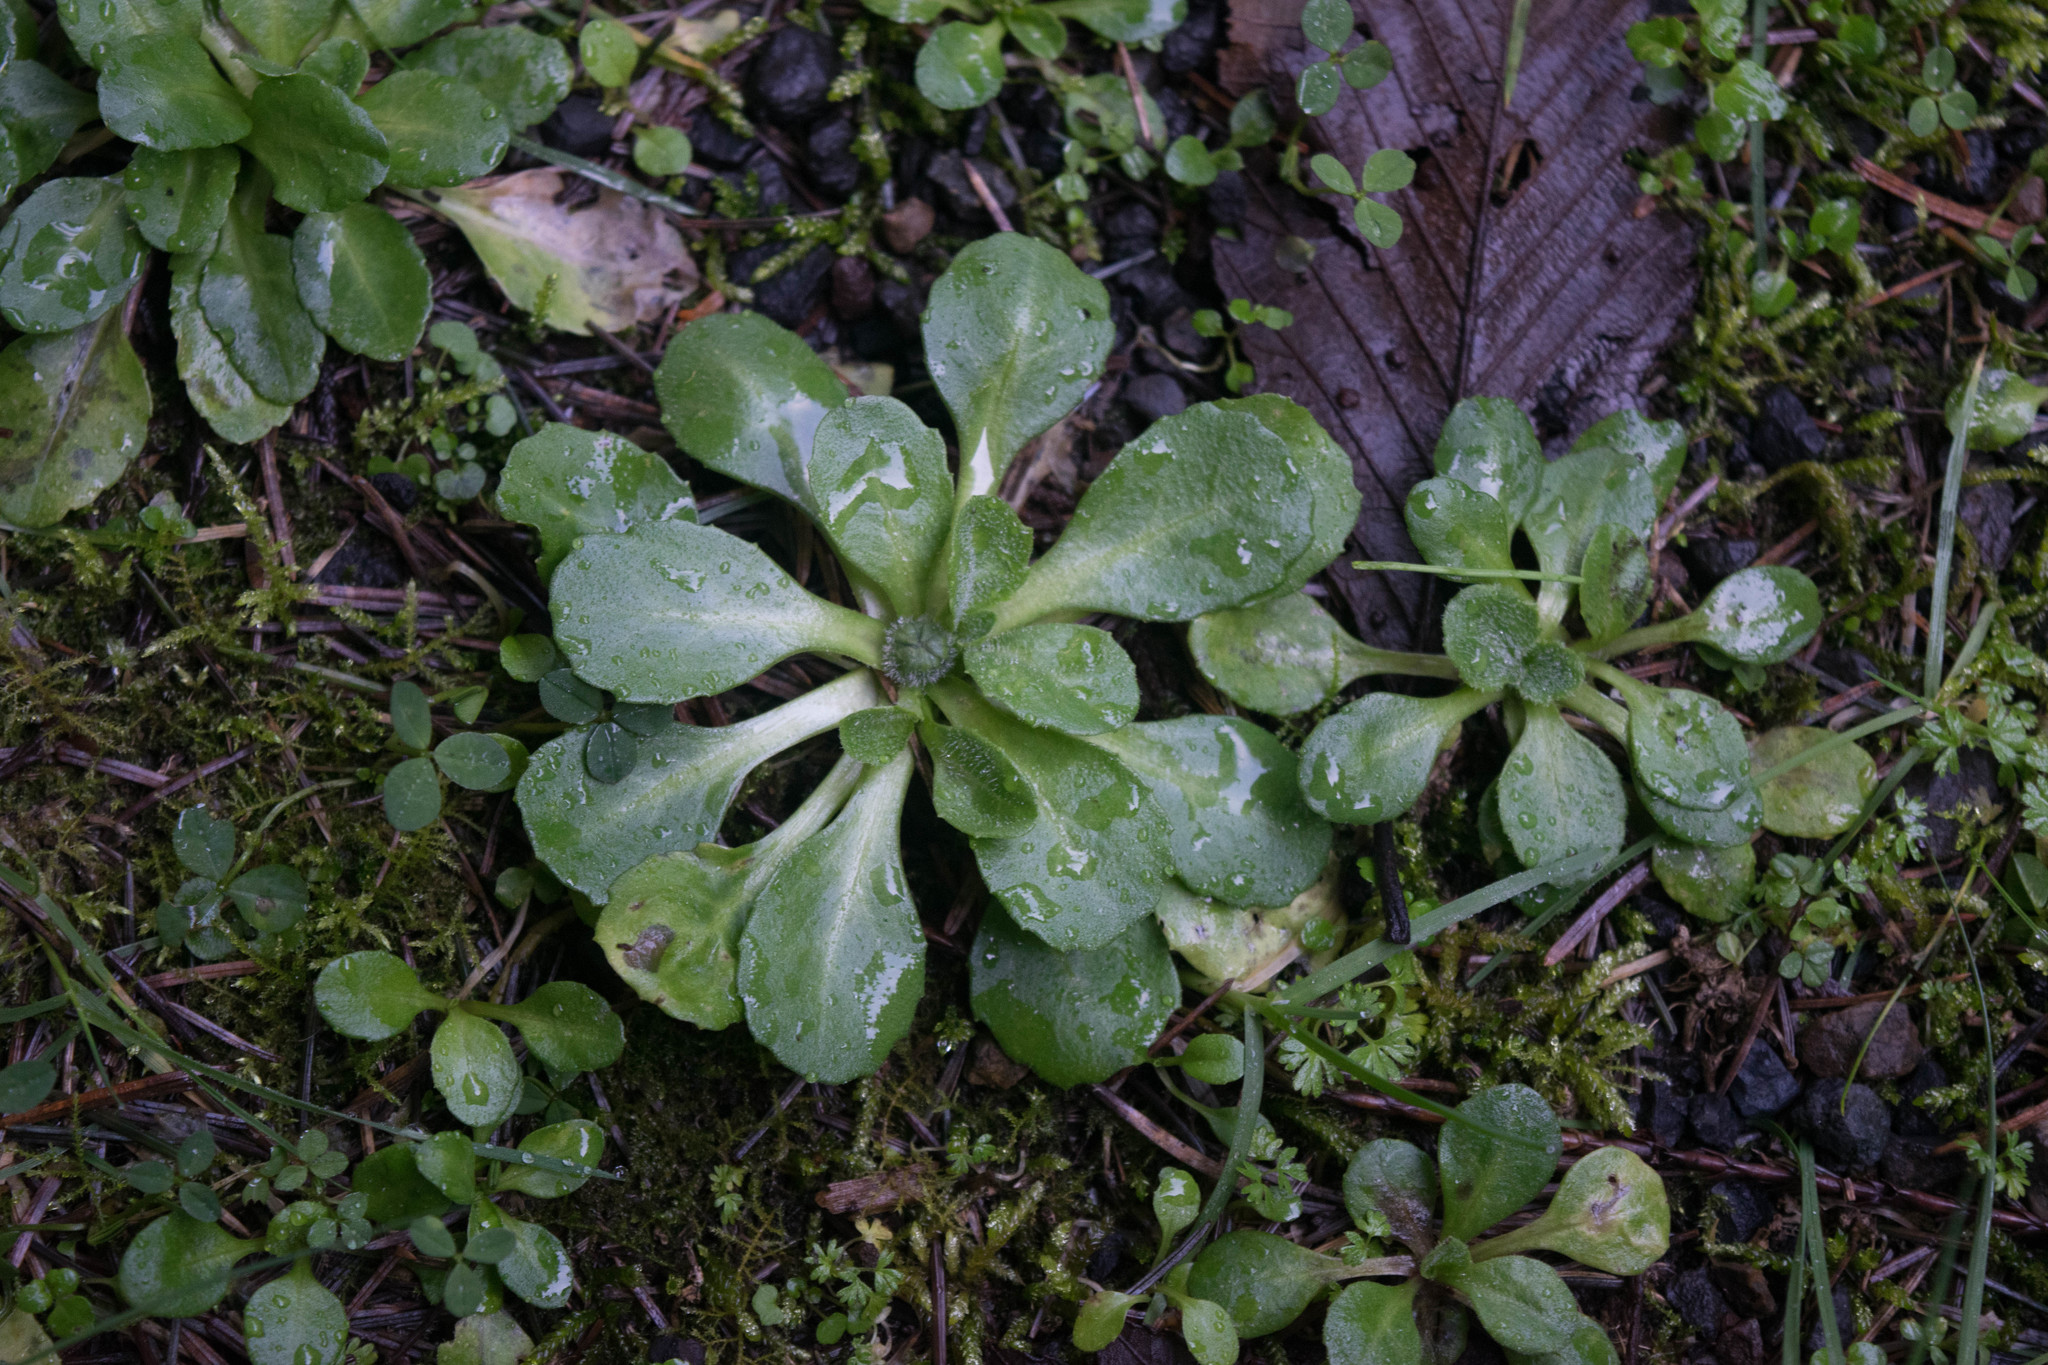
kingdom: Plantae
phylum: Tracheophyta
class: Magnoliopsida
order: Asterales
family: Asteraceae
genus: Bellis
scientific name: Bellis perennis
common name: Lawndaisy
